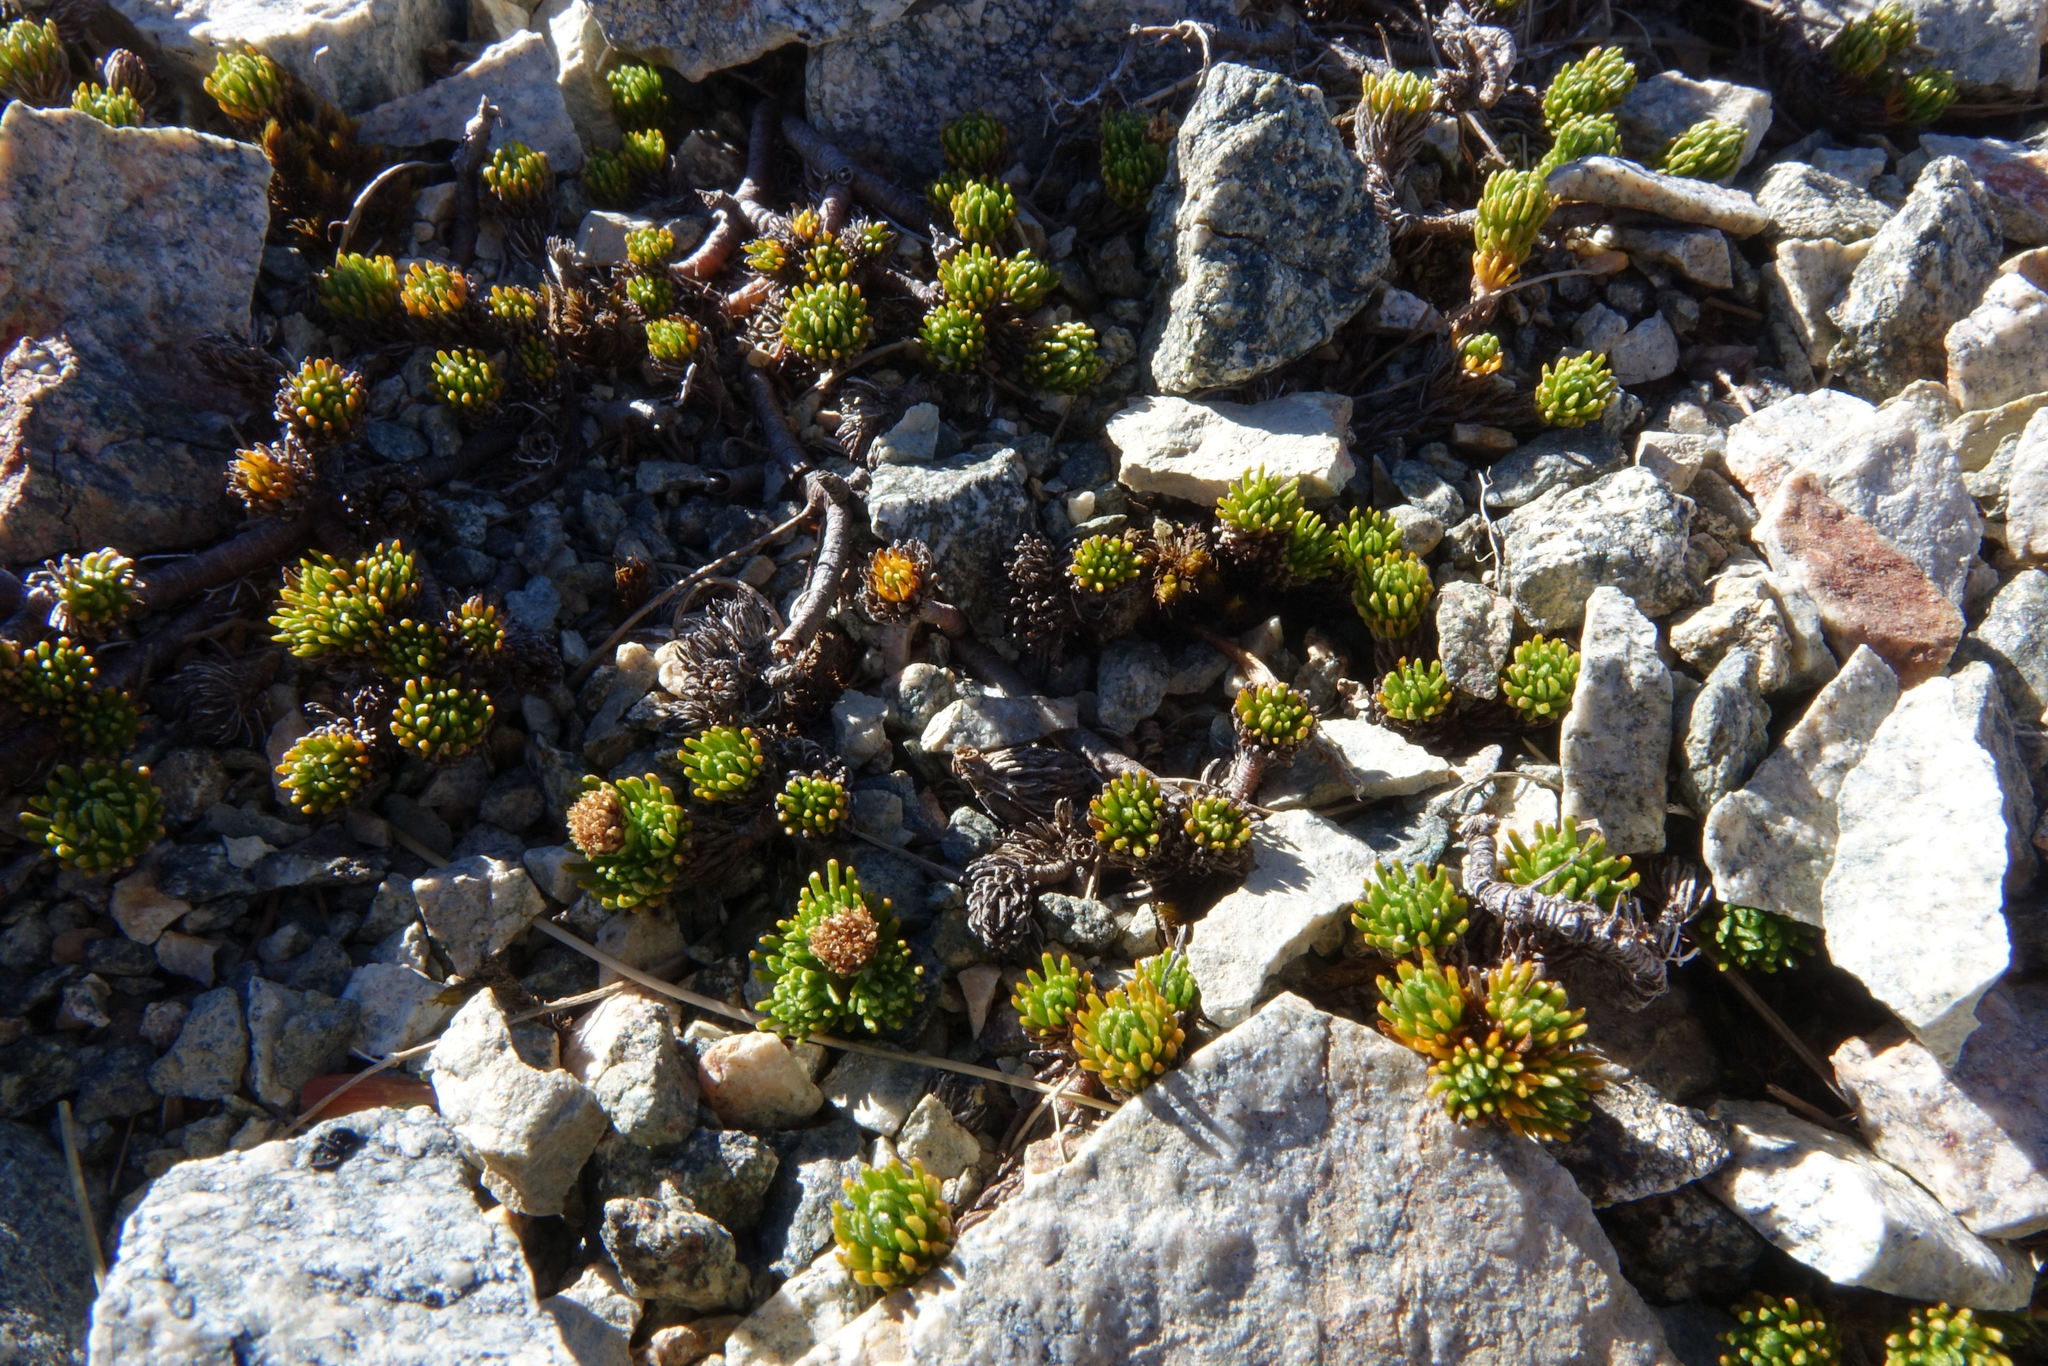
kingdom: Plantae
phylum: Tracheophyta
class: Magnoliopsida
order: Asterales
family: Asteraceae
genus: Leptinella
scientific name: Leptinella goyenii
